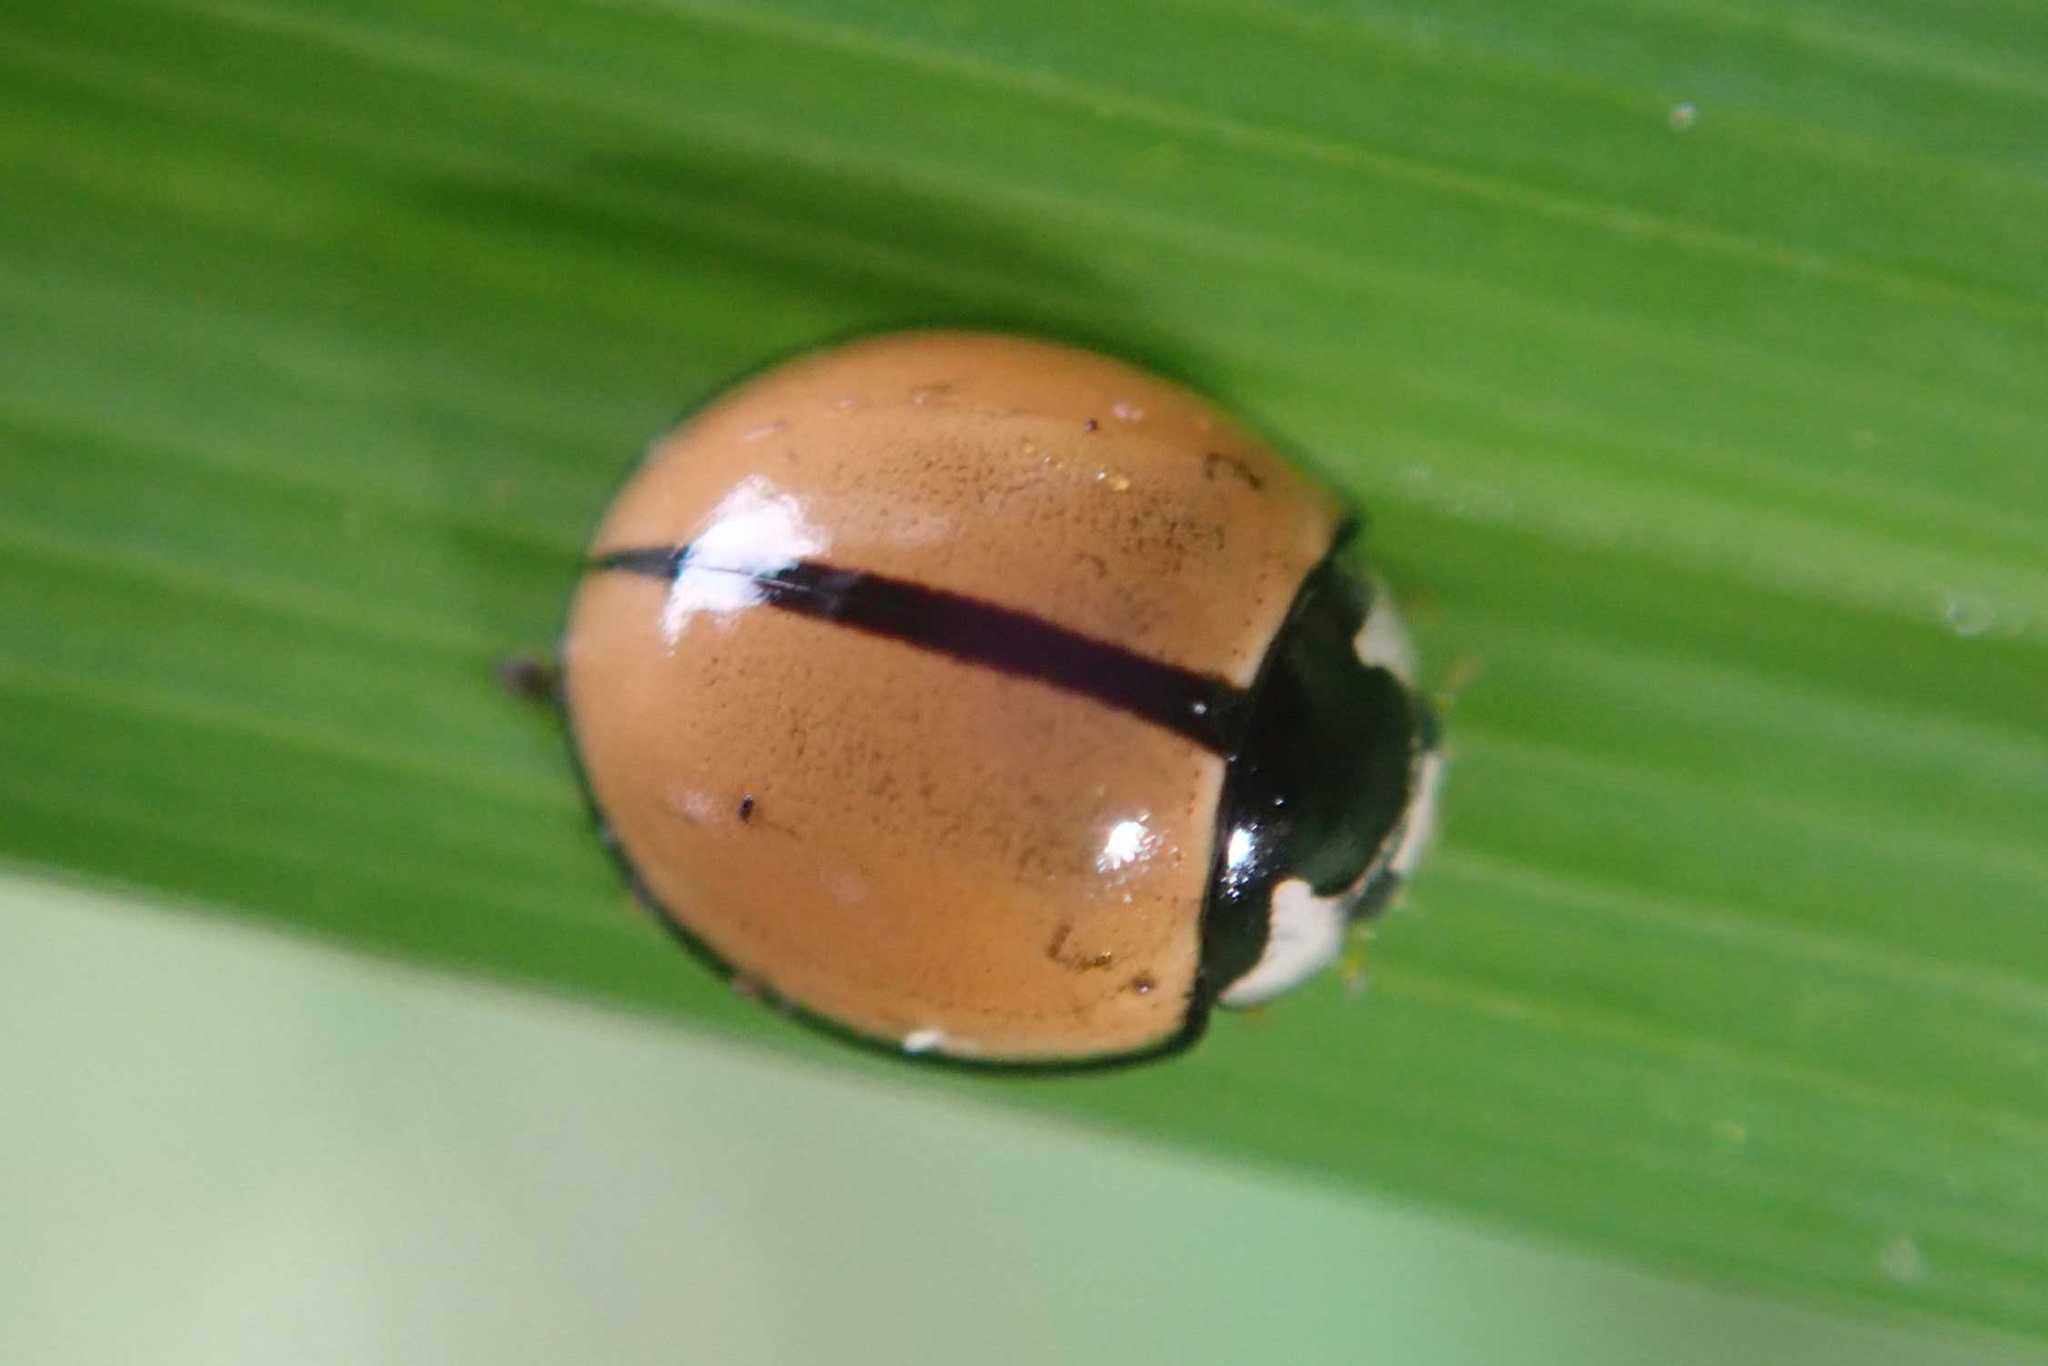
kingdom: Animalia
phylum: Arthropoda
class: Insecta
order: Coleoptera
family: Coccinellidae
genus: Cheilomenes
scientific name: Cheilomenes propinqua
